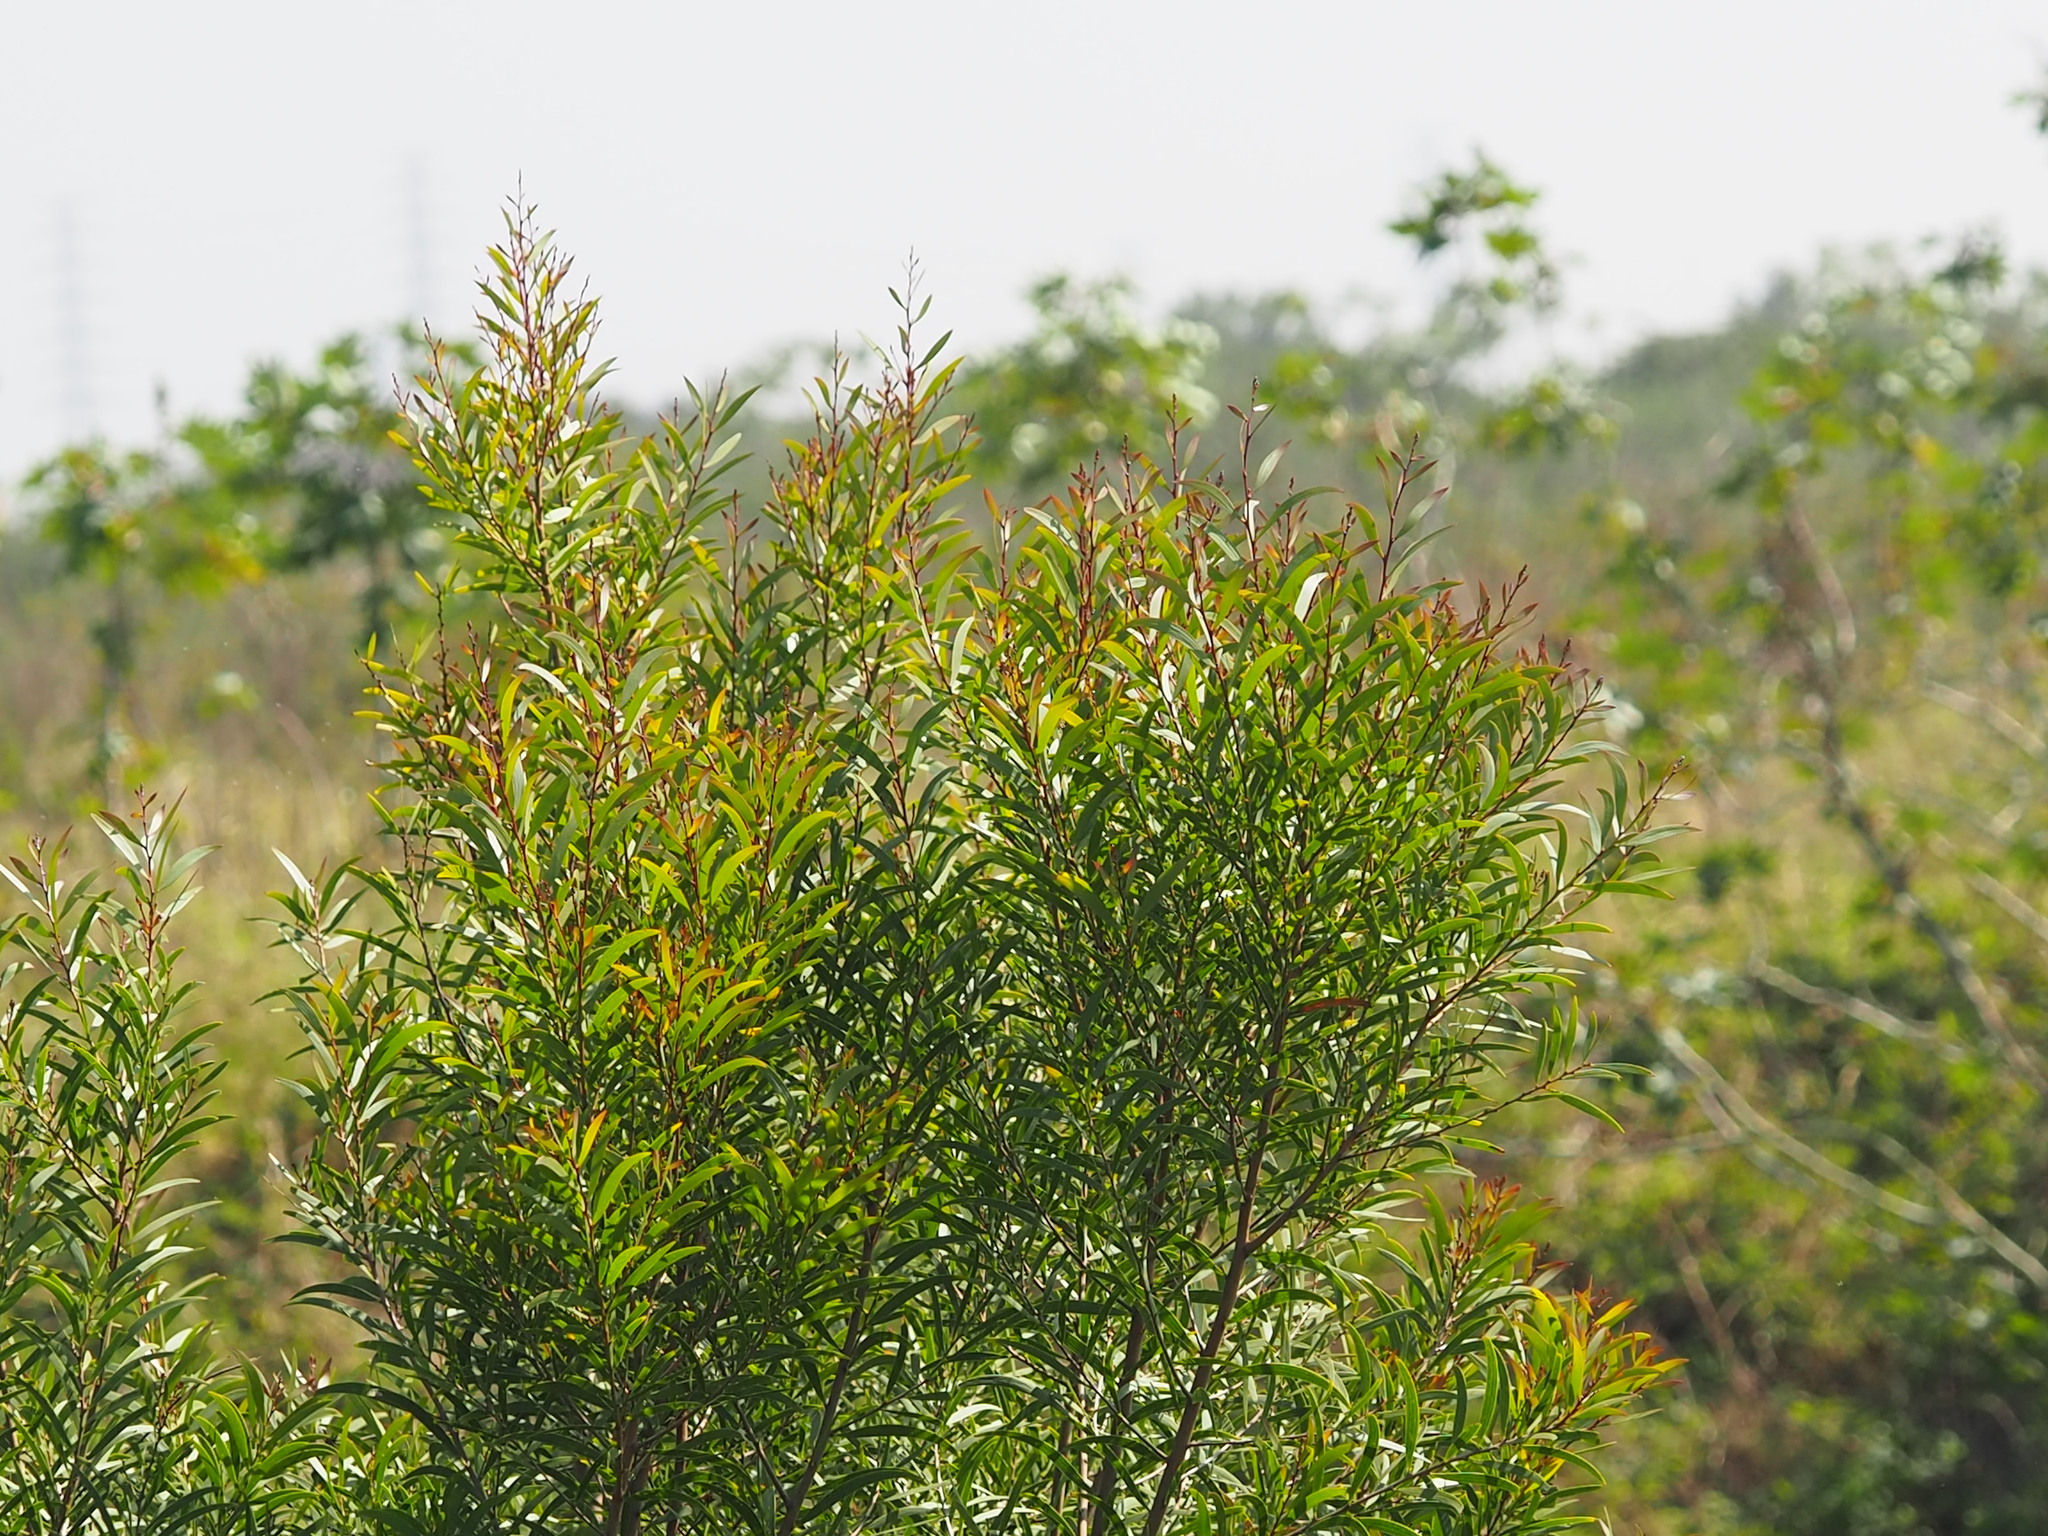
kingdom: Plantae
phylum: Tracheophyta
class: Magnoliopsida
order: Fabales
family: Fabaceae
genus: Acacia
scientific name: Acacia confusa
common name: Formosan koa
